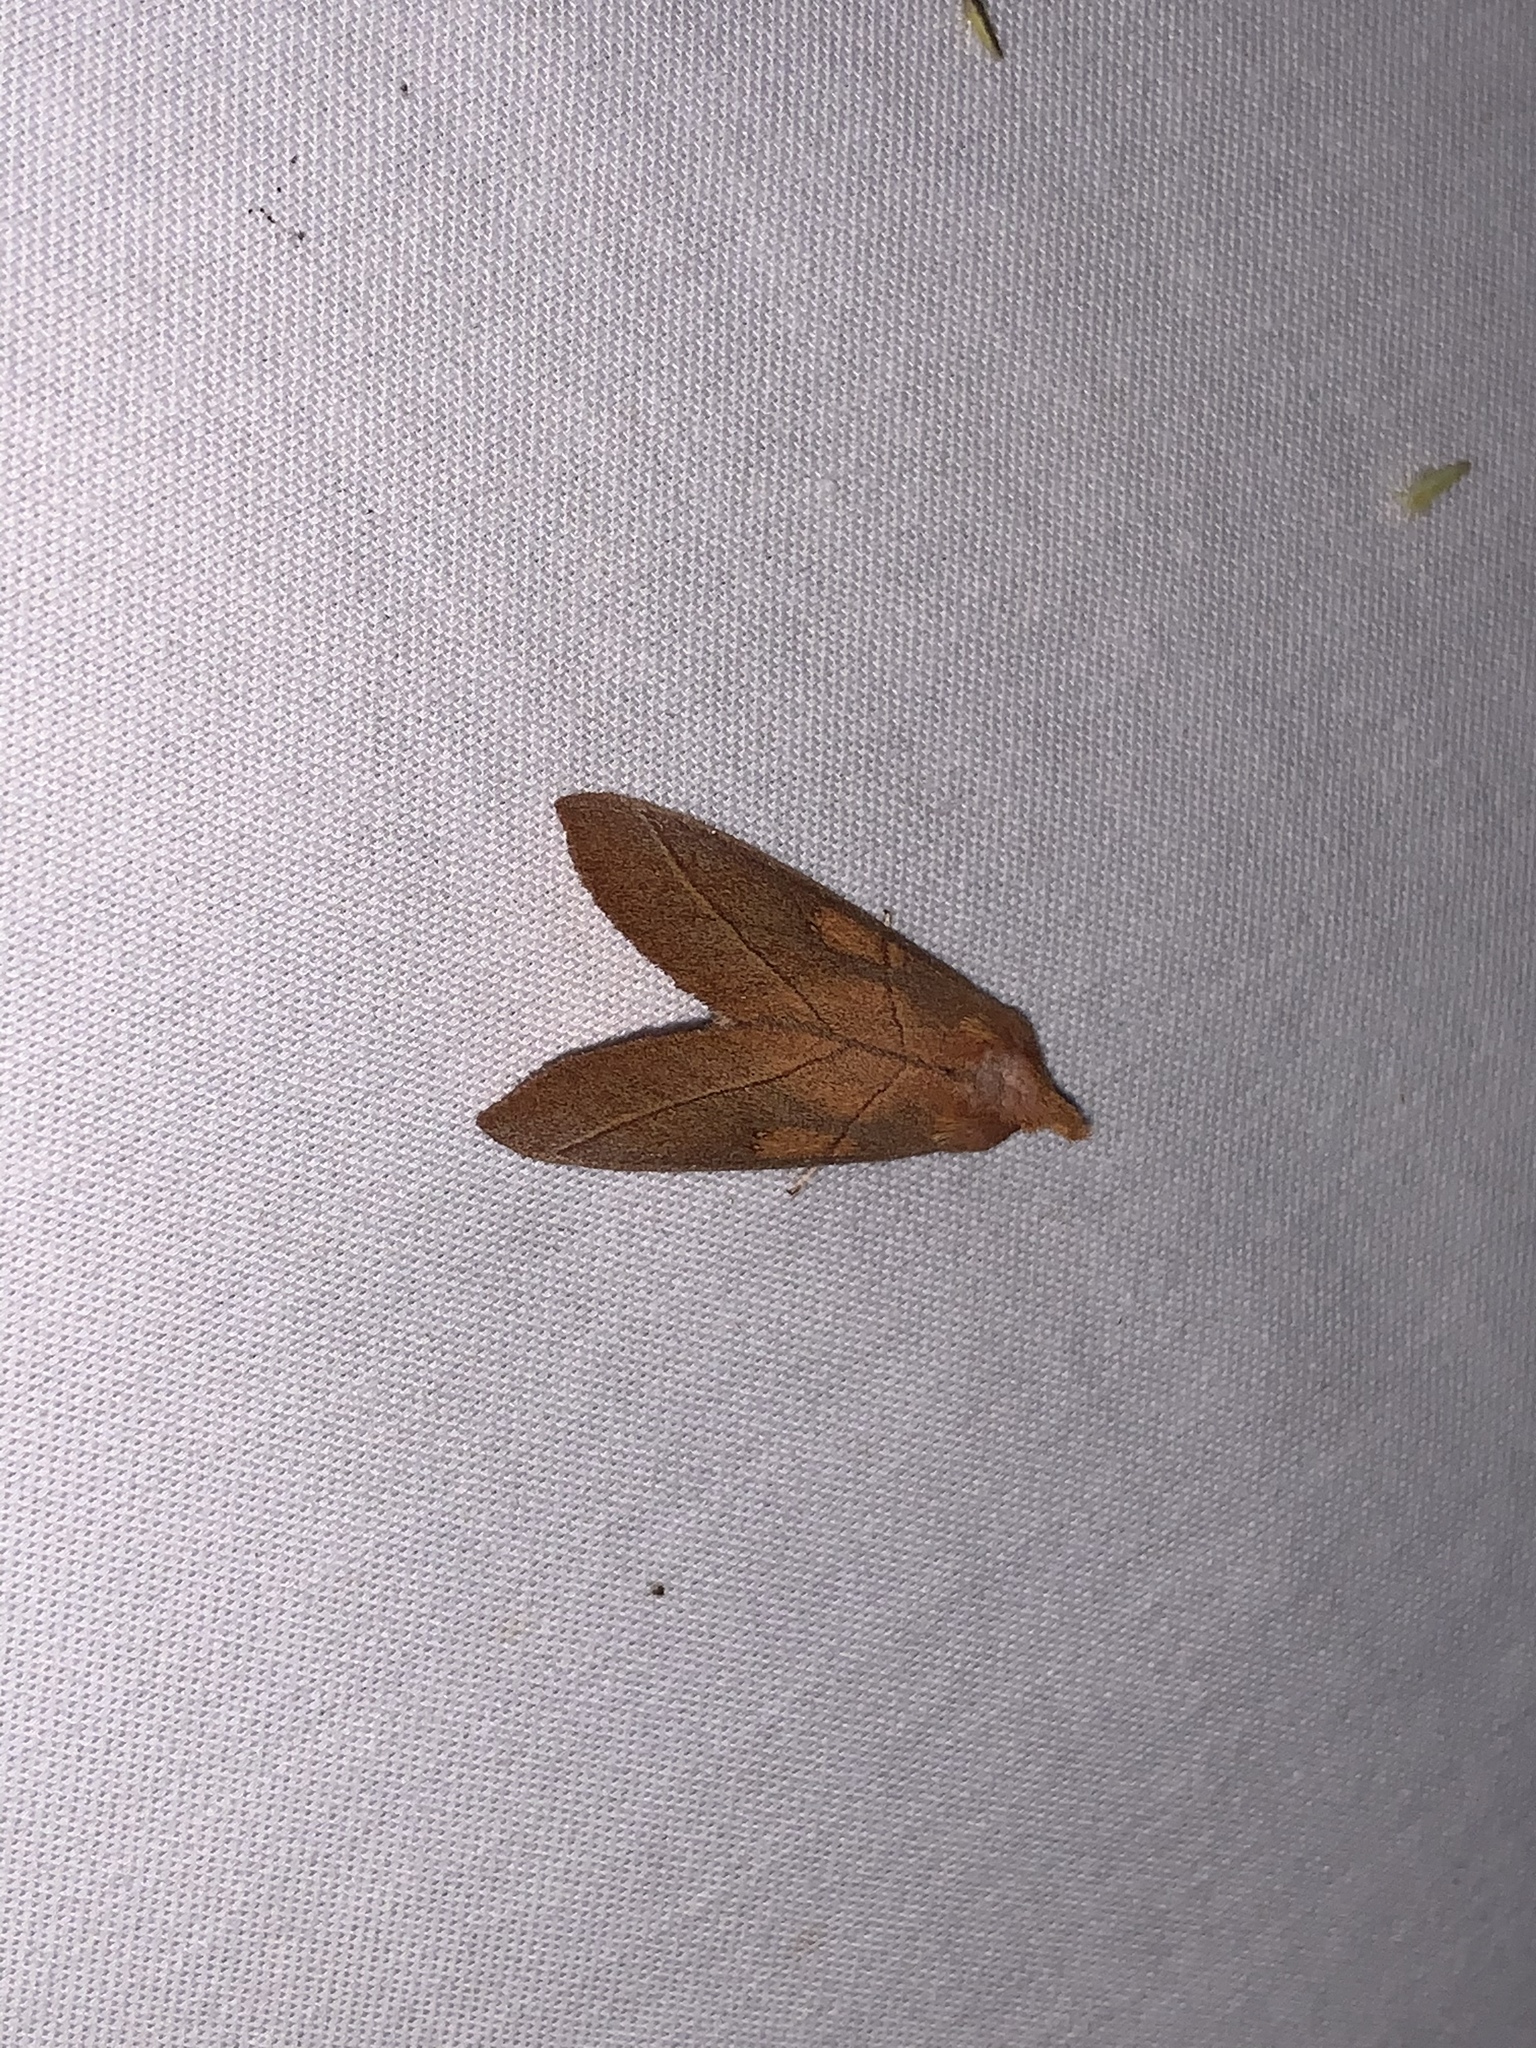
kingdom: Animalia
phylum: Arthropoda
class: Insecta
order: Lepidoptera
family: Notodontidae
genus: Nadata
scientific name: Nadata gibbosa
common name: White-dotted prominent
